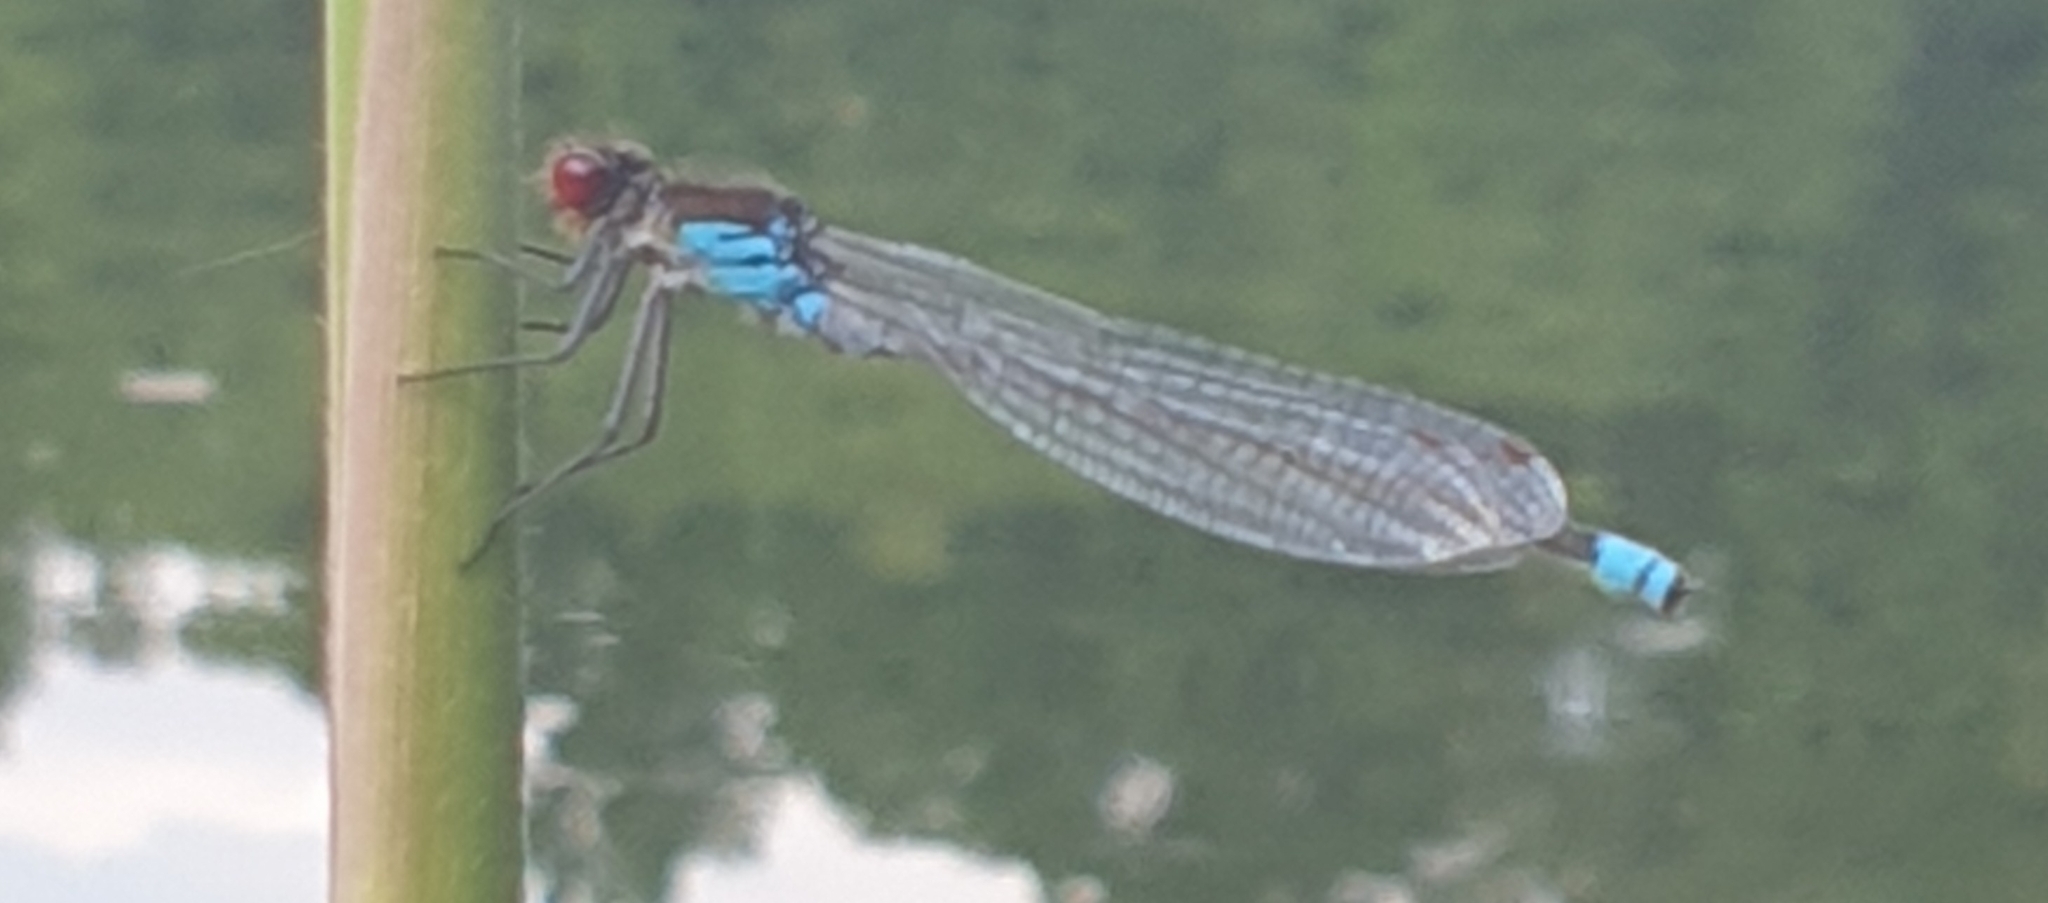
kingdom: Animalia
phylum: Arthropoda
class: Insecta
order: Odonata
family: Coenagrionidae
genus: Erythromma
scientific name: Erythromma najas
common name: Red-eyed damselfly
